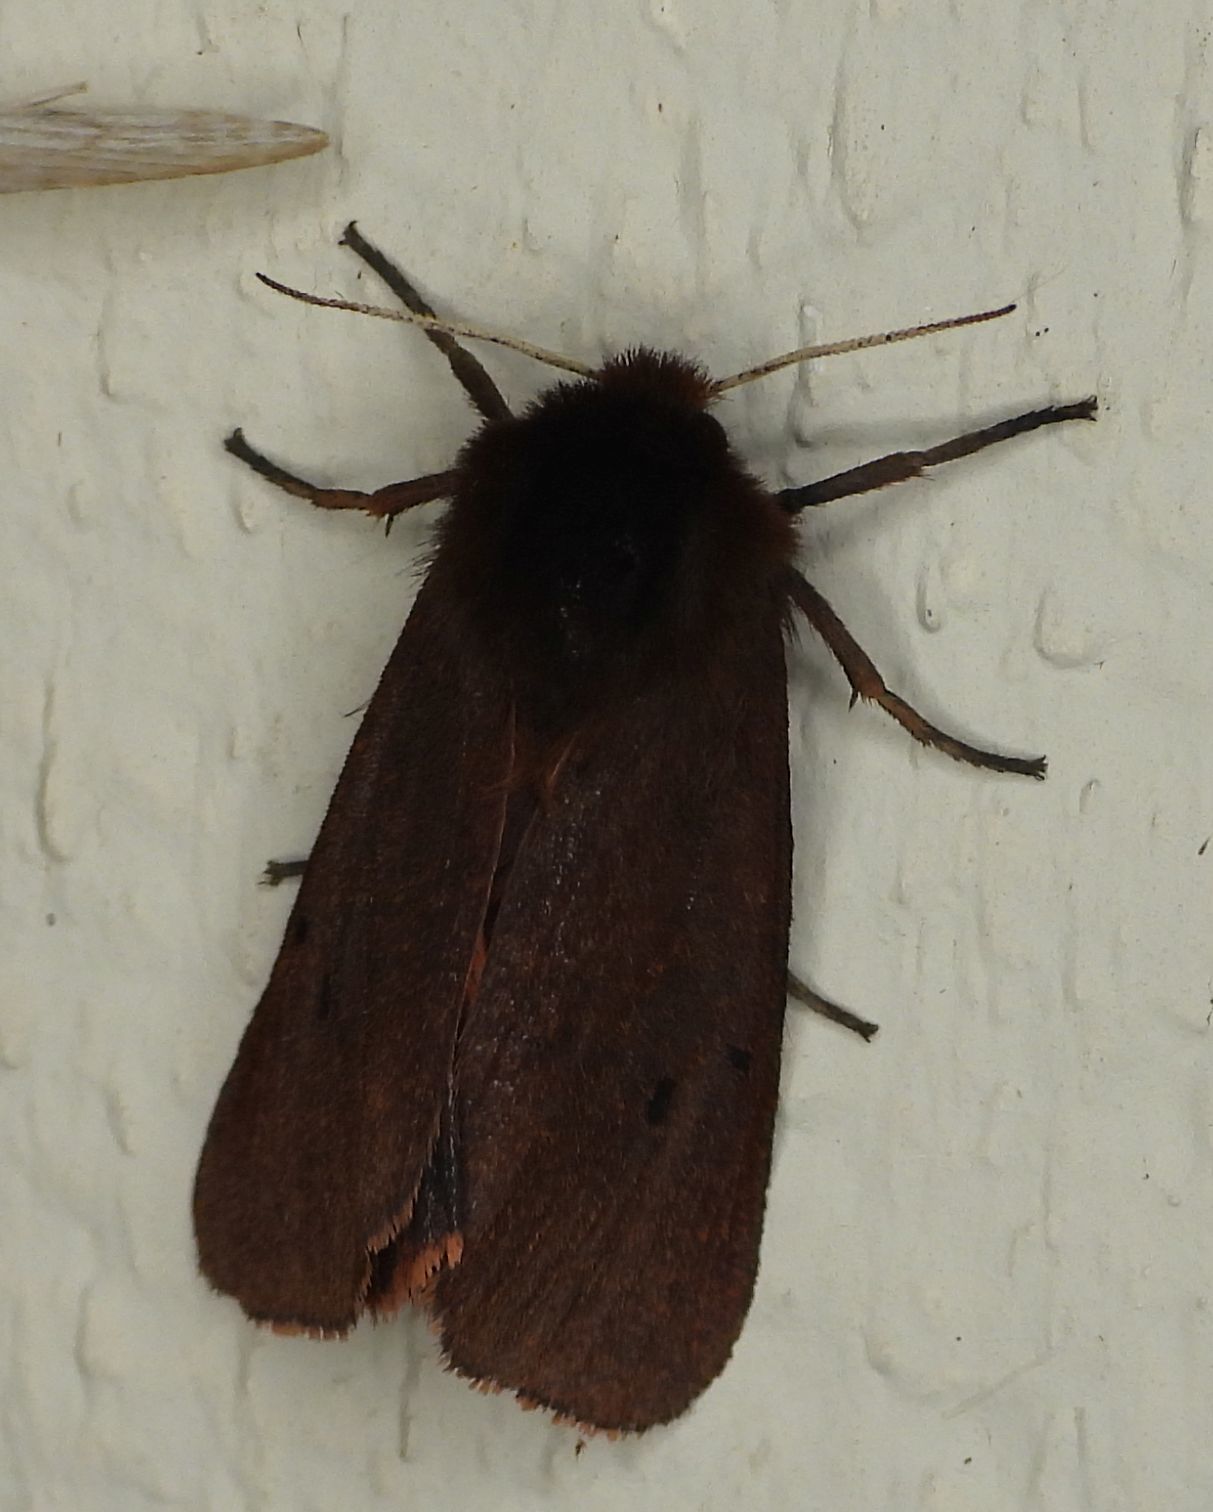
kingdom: Animalia
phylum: Arthropoda
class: Insecta
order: Lepidoptera
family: Erebidae
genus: Phragmatobia
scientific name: Phragmatobia fuliginosa
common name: Ruby tiger
